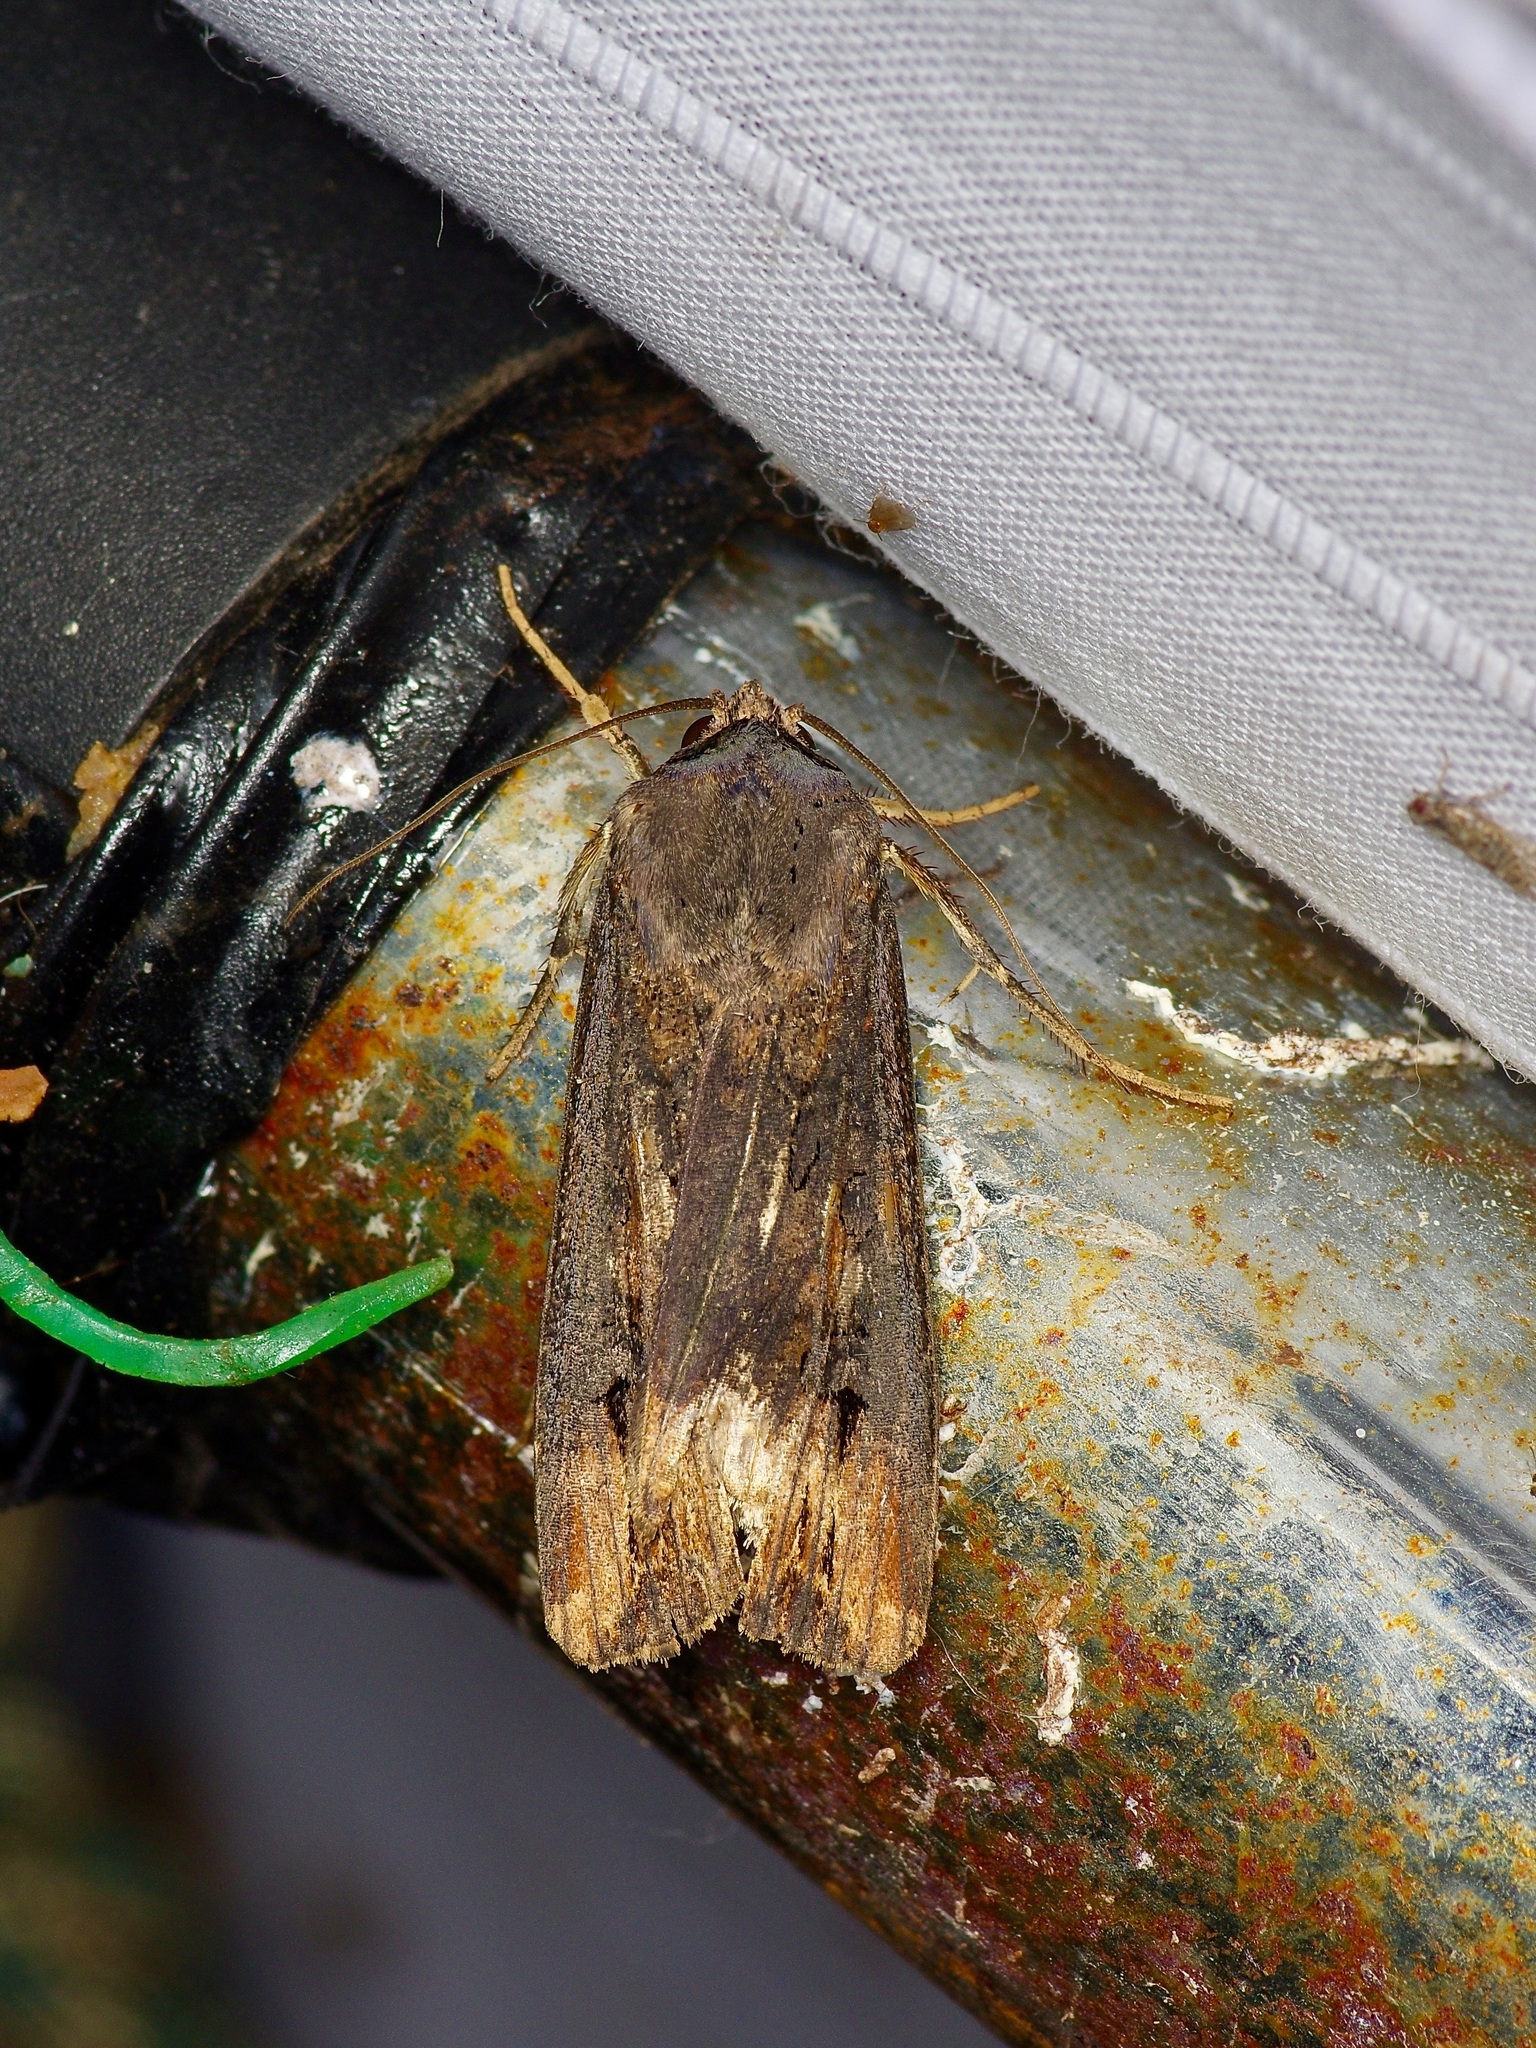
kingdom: Animalia
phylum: Arthropoda
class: Insecta
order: Lepidoptera
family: Noctuidae
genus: Agrotis
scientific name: Agrotis ipsilon
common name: Dark sword-grass
